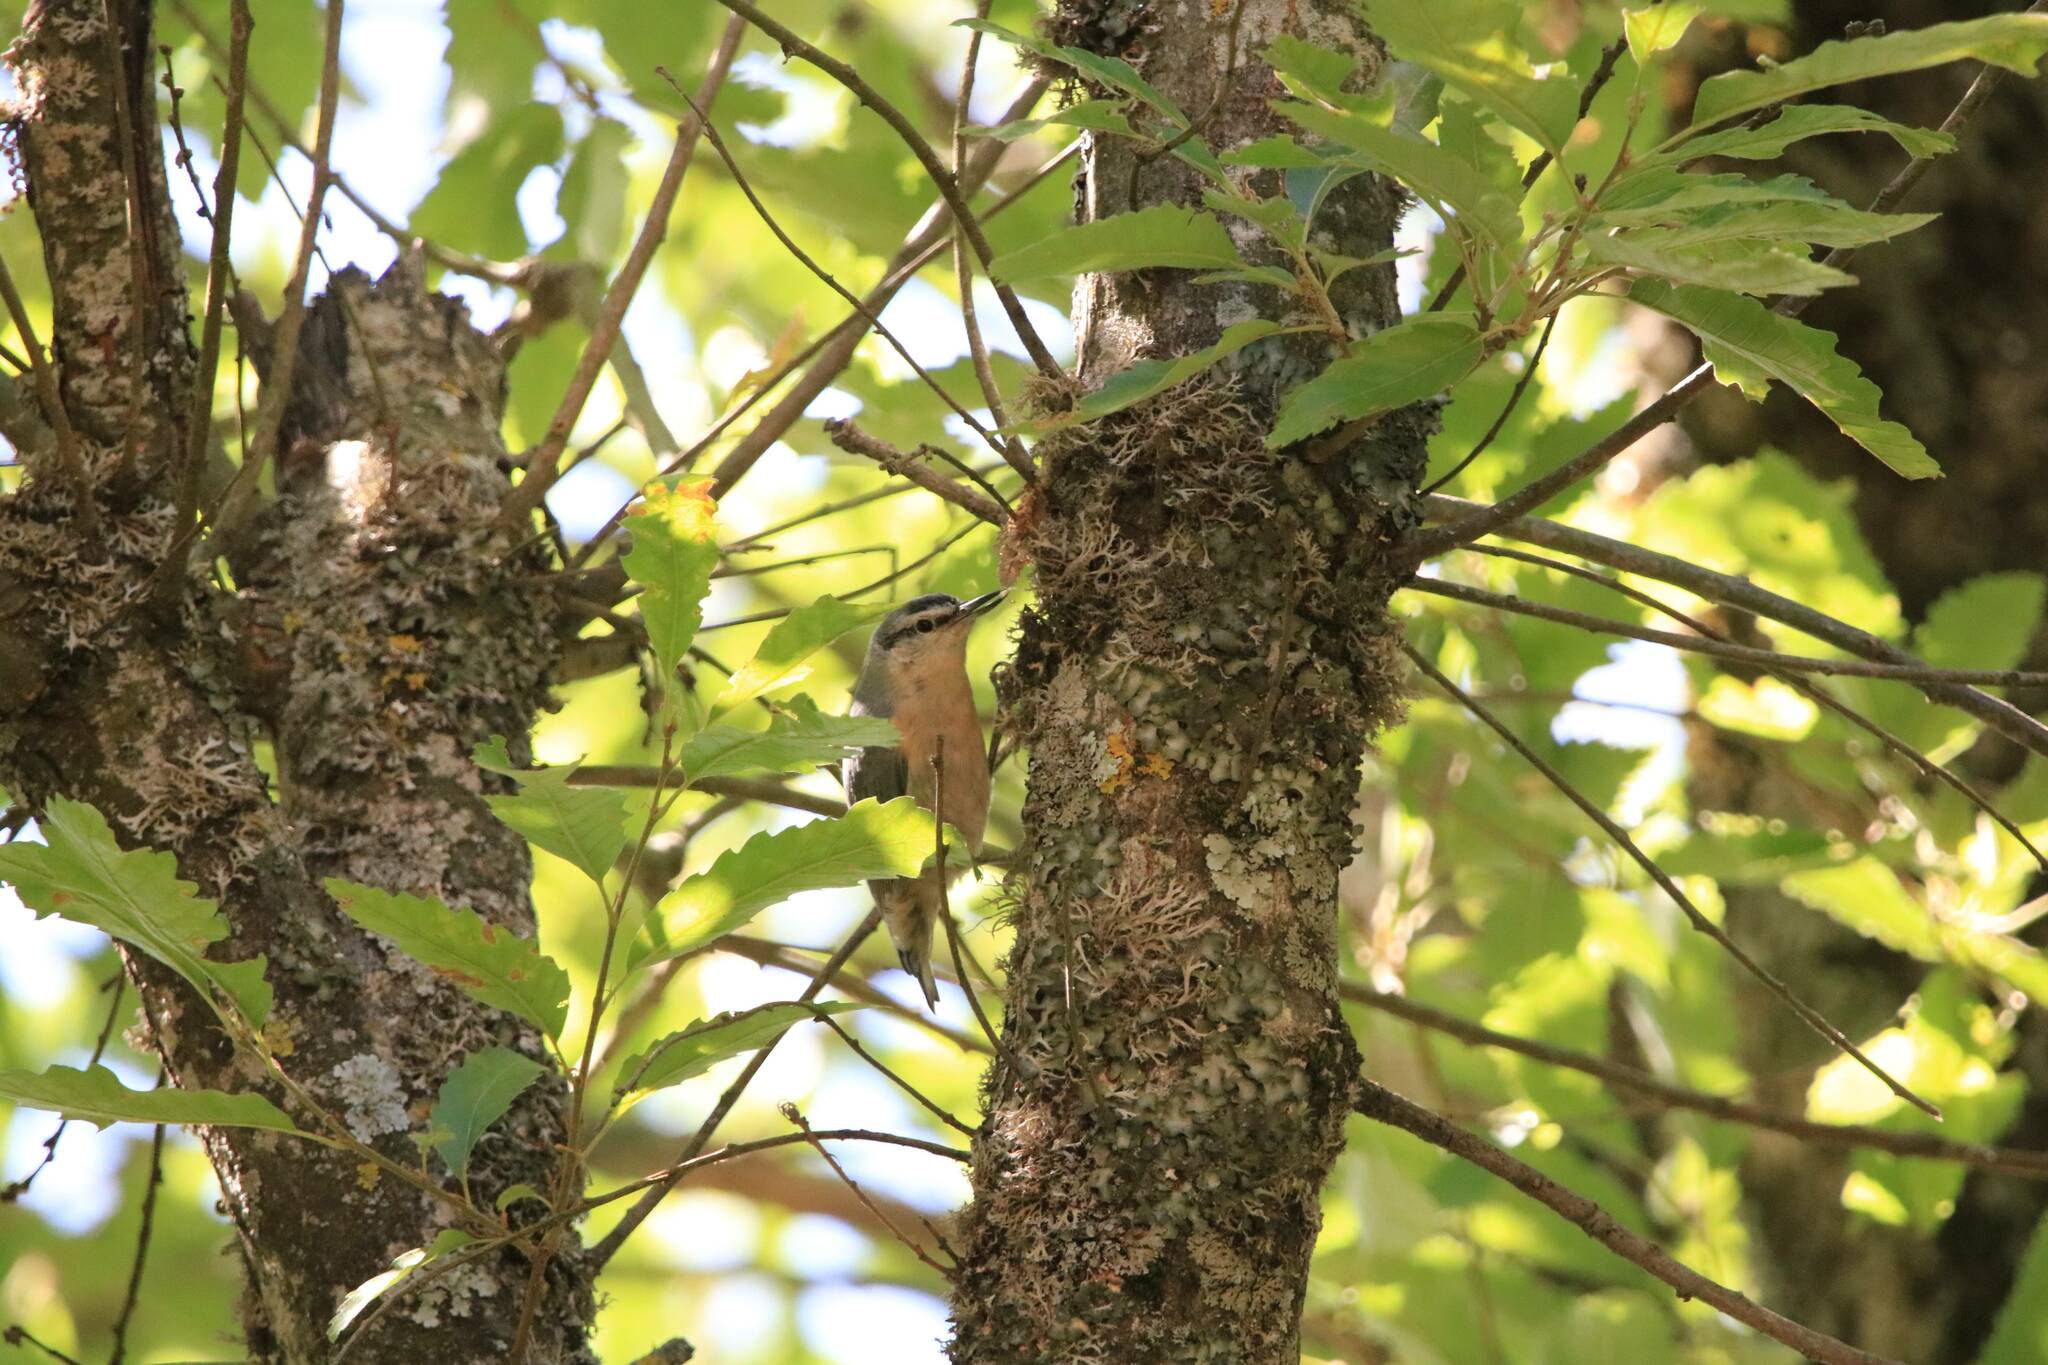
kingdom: Animalia
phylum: Chordata
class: Aves
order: Passeriformes
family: Sittidae
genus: Sitta
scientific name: Sitta ledanti
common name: Algerian nuthatch
